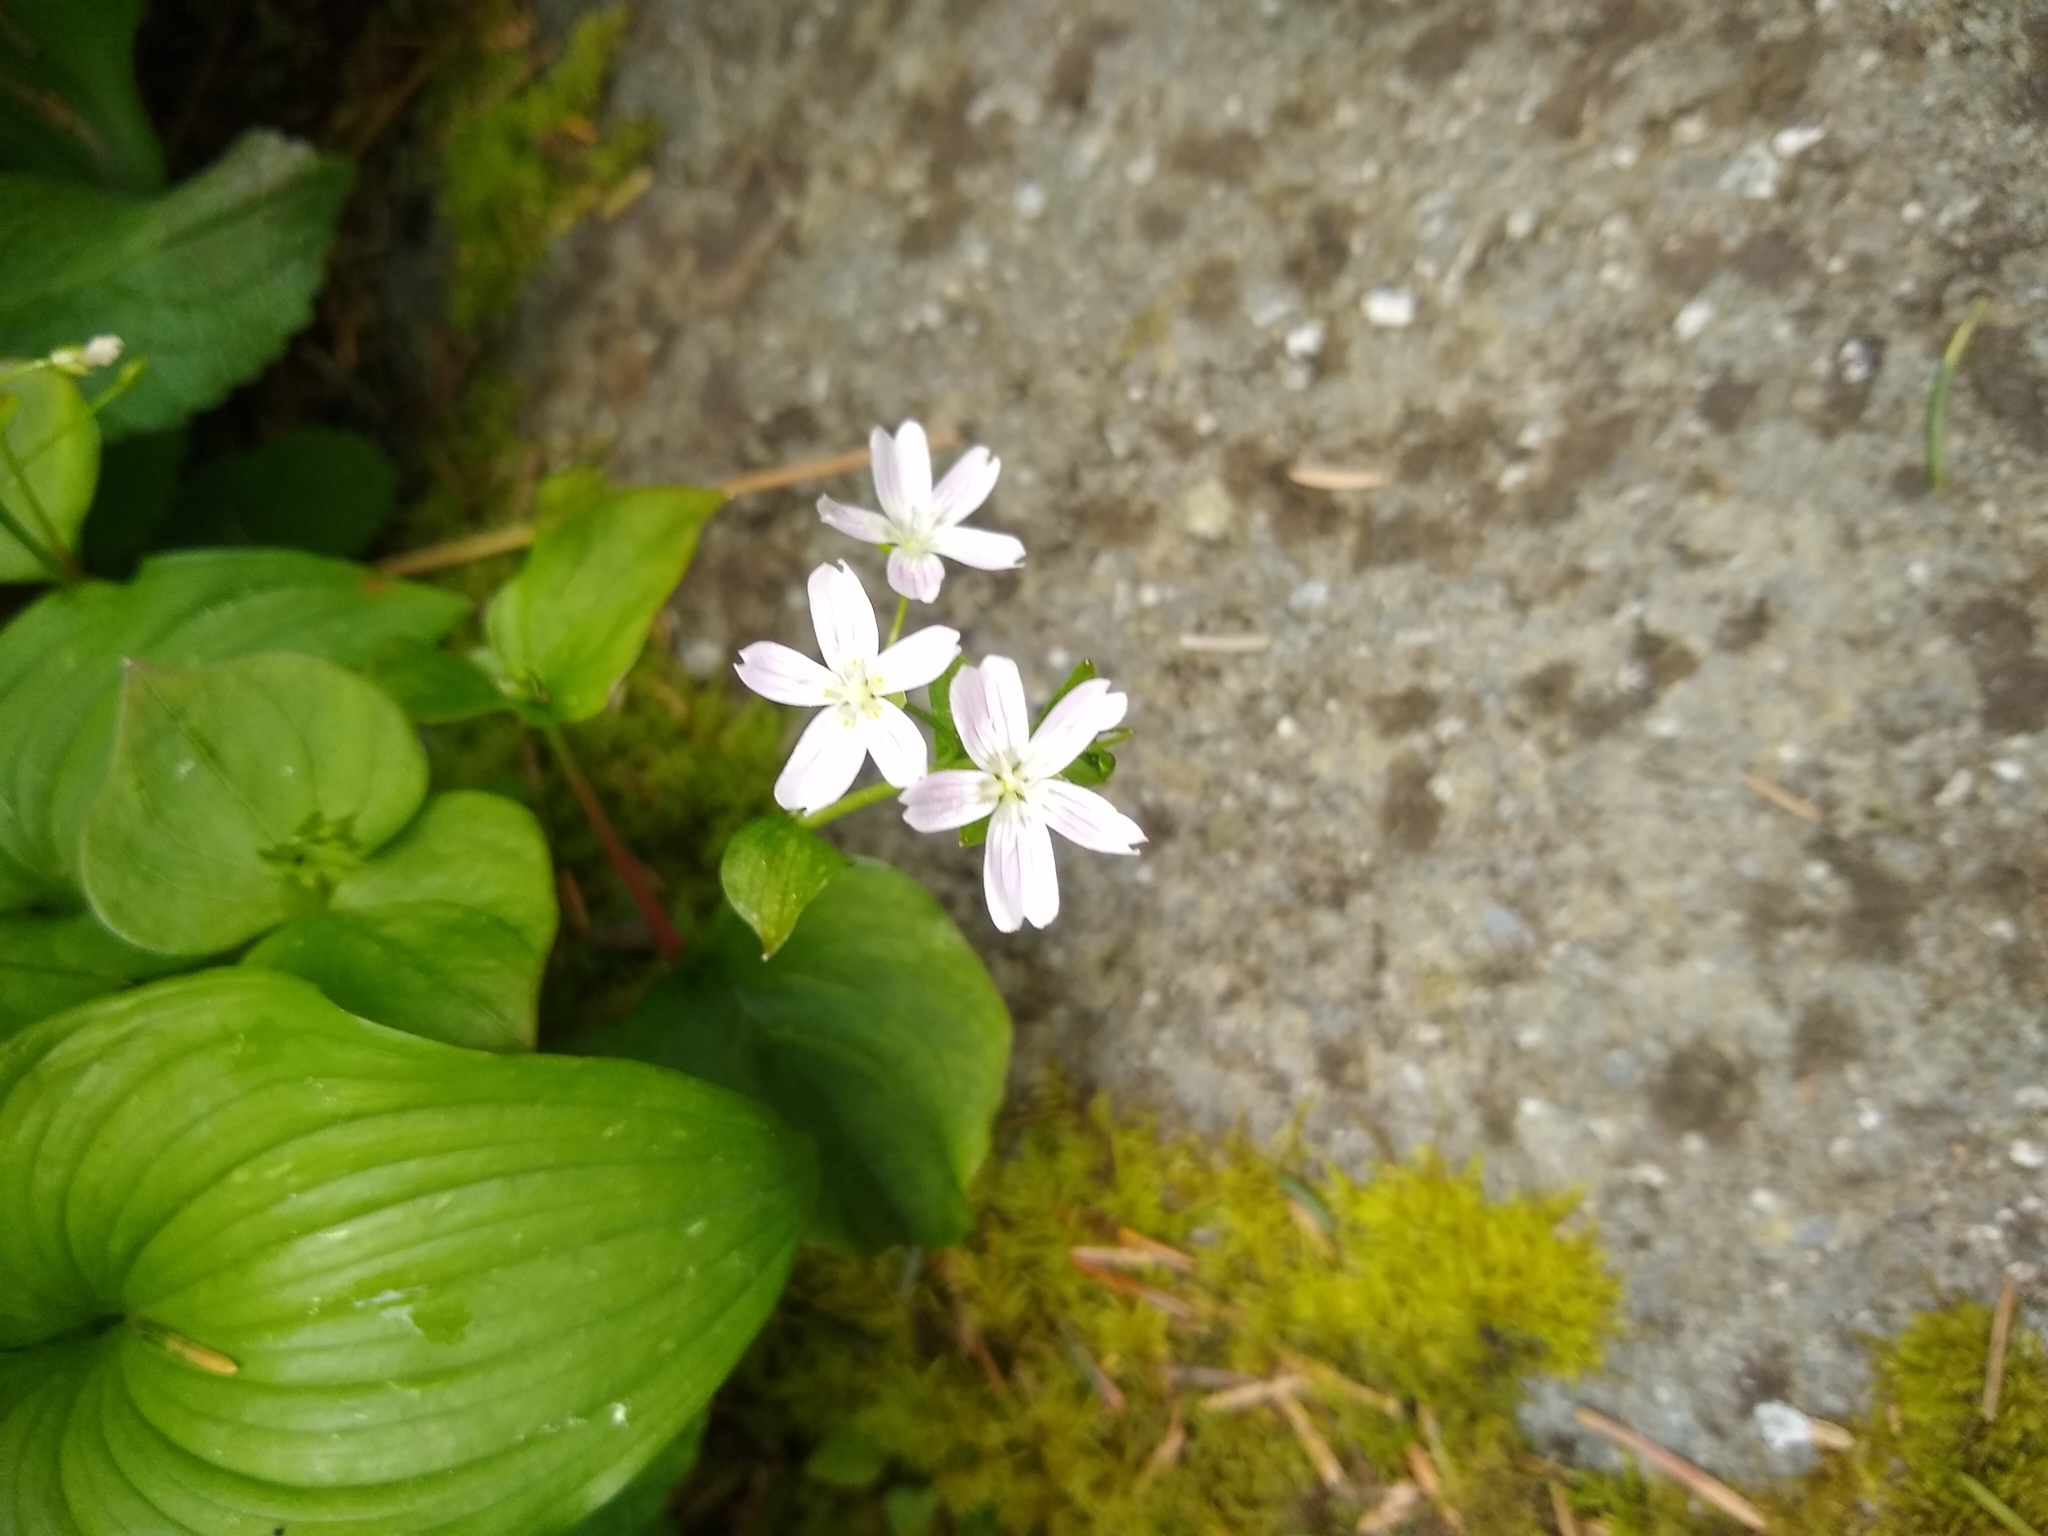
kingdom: Plantae
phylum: Tracheophyta
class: Magnoliopsida
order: Caryophyllales
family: Montiaceae
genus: Claytonia
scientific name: Claytonia sibirica
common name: Pink purslane
